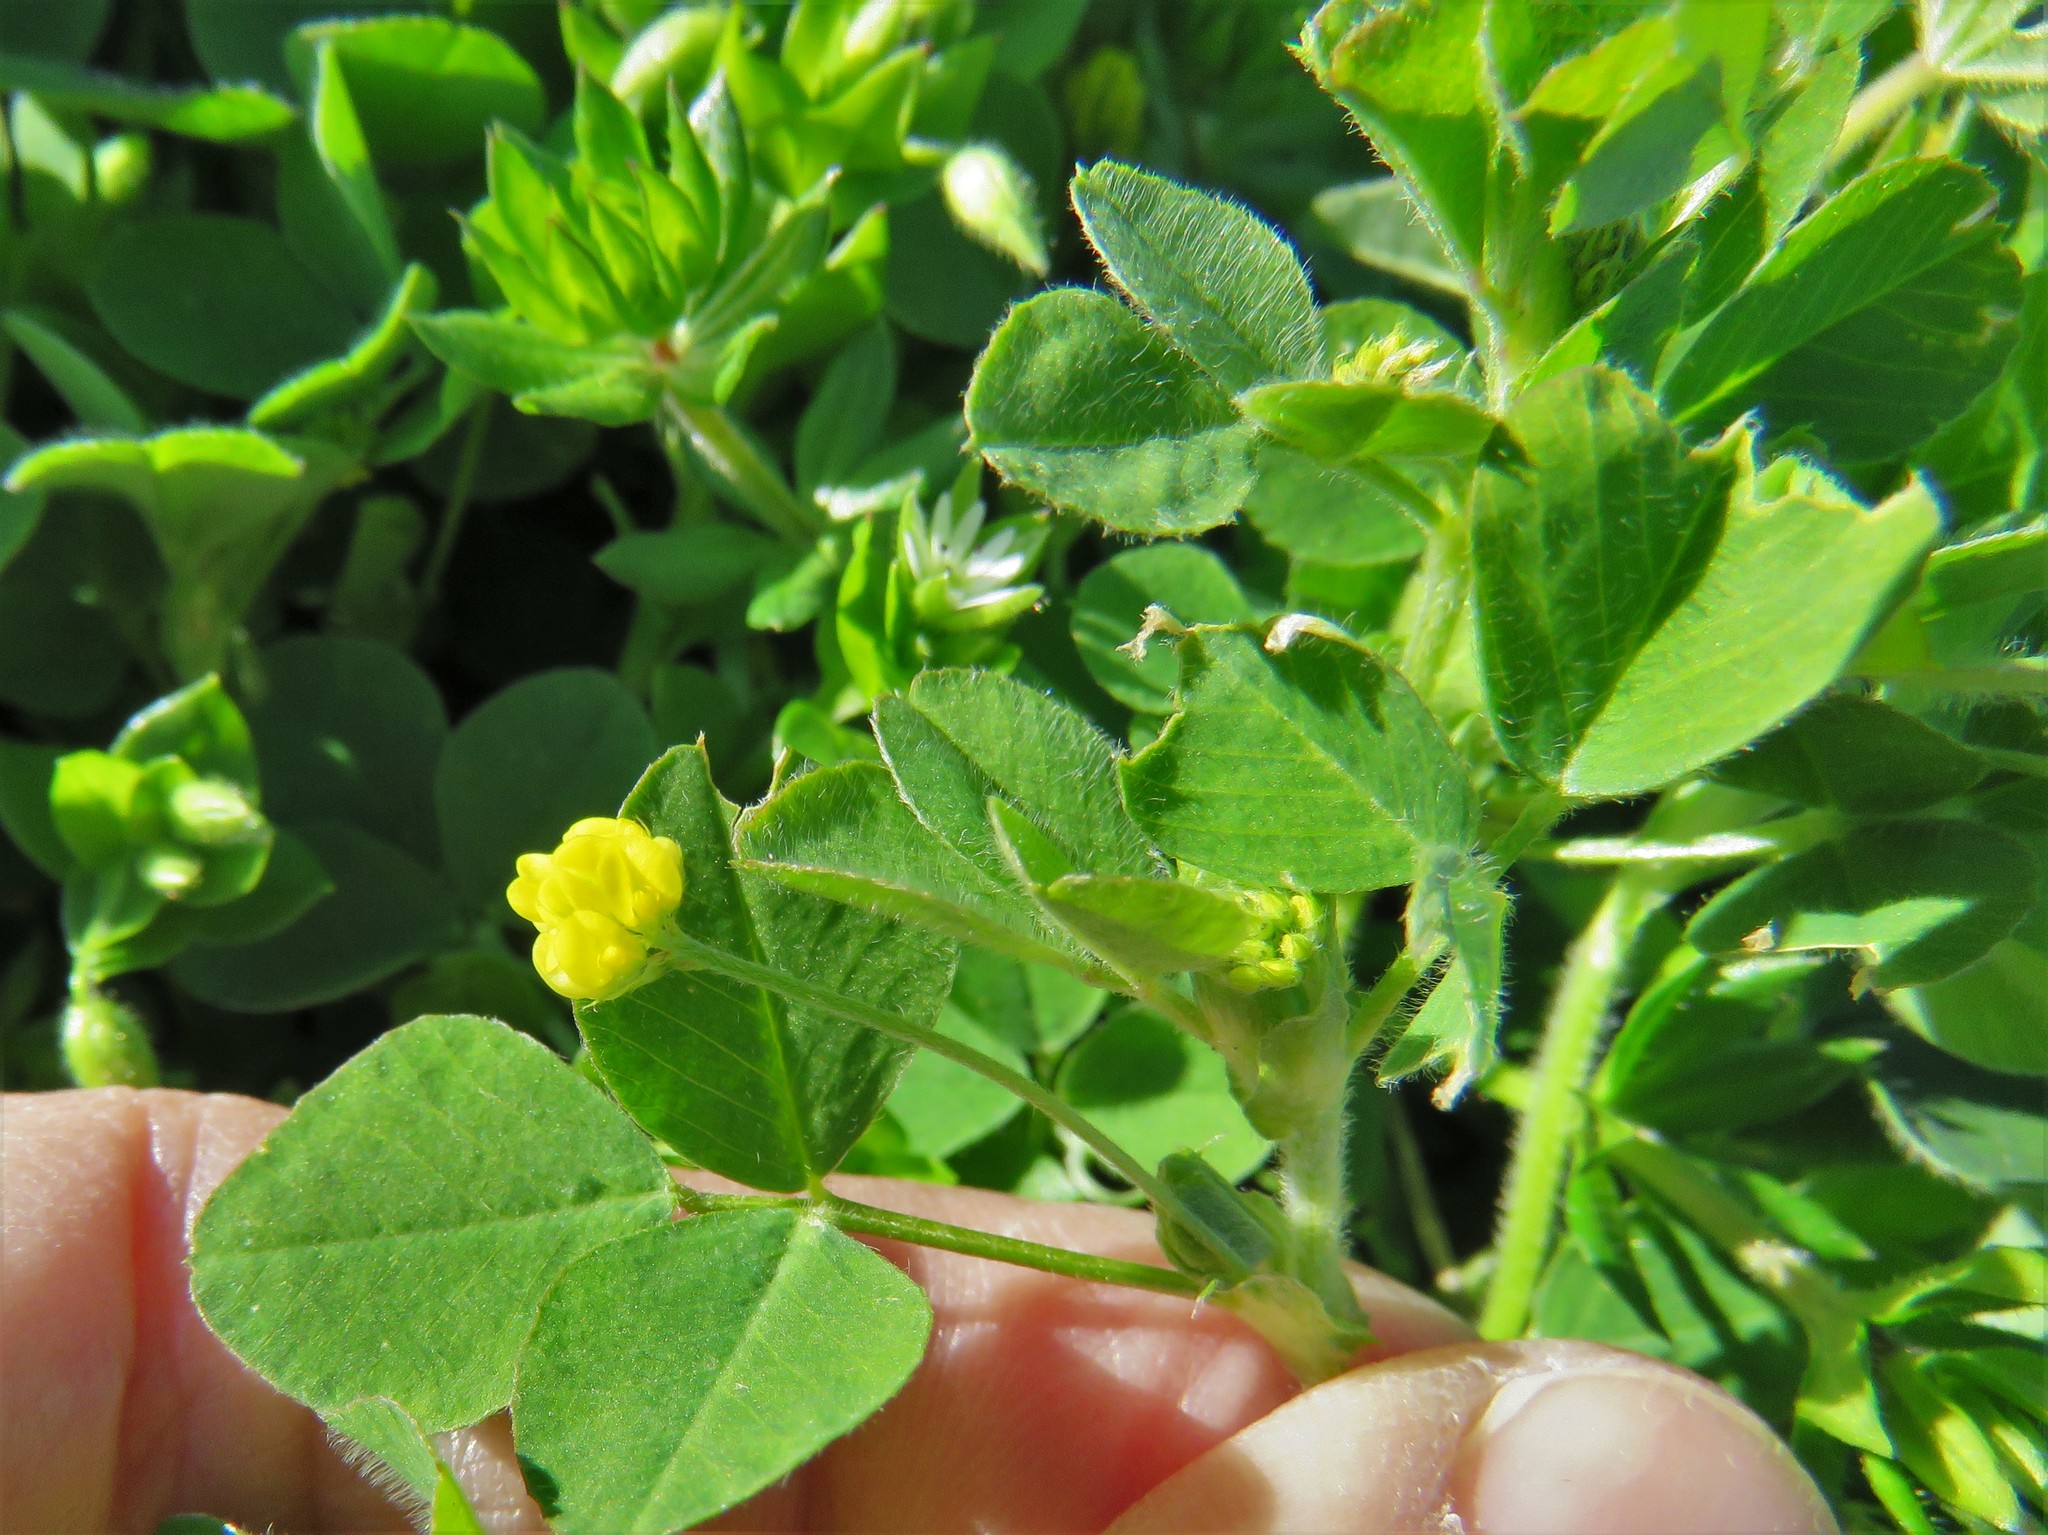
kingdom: Plantae
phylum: Tracheophyta
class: Magnoliopsida
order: Fabales
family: Fabaceae
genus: Medicago
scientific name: Medicago lupulina
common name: Black medick
